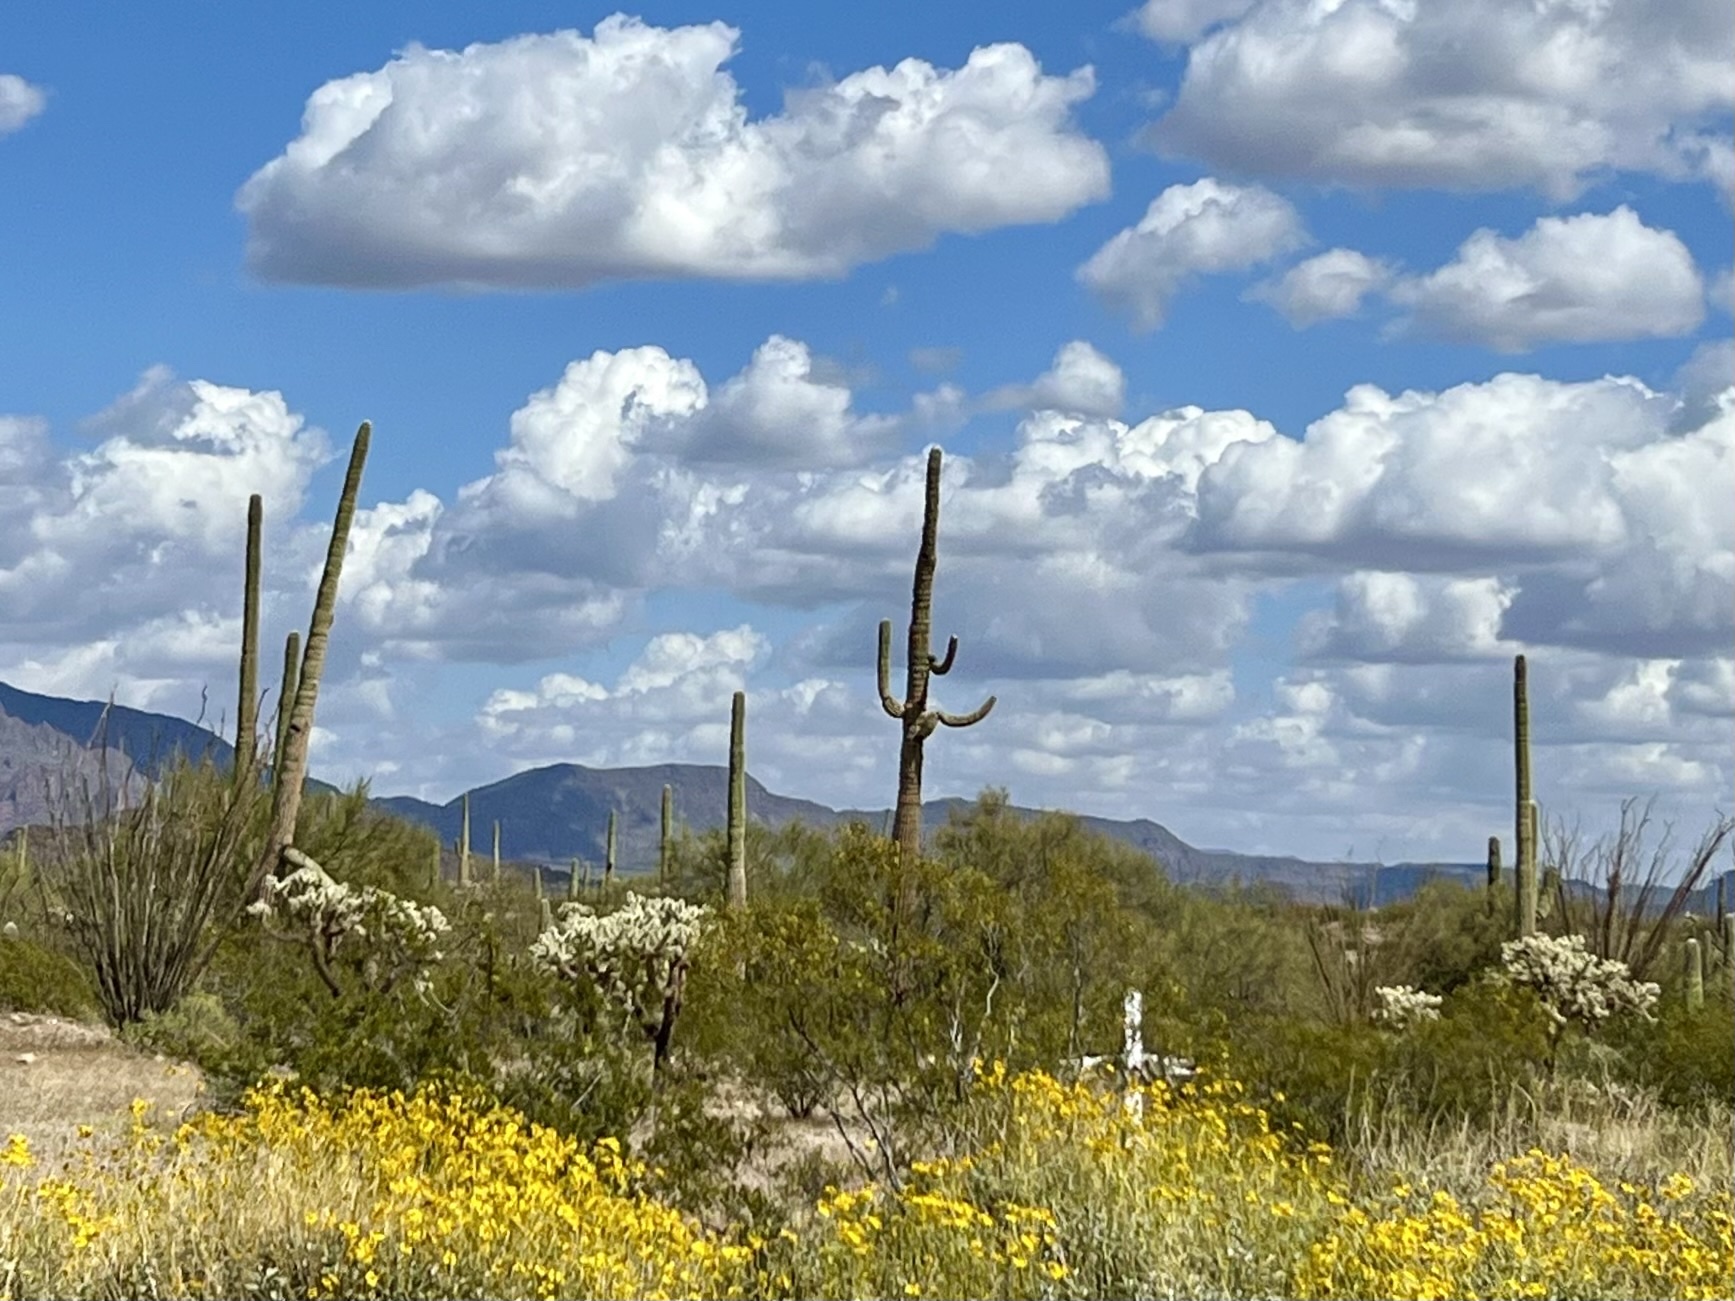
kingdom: Plantae
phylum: Tracheophyta
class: Magnoliopsida
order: Caryophyllales
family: Cactaceae
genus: Carnegiea
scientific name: Carnegiea gigantea
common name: Saguaro
